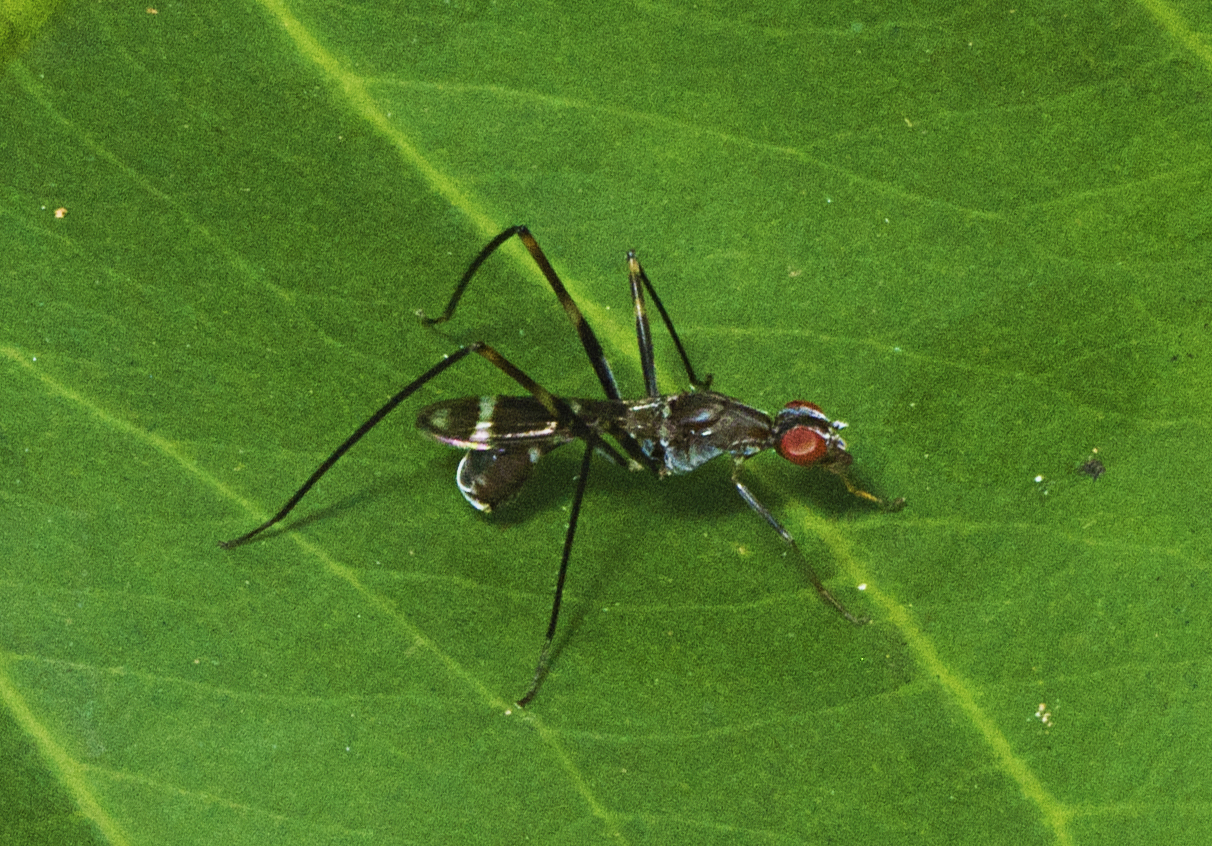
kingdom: Animalia
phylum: Arthropoda
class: Insecta
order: Diptera
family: Micropezidae
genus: Metopochetus
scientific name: Metopochetus impar
